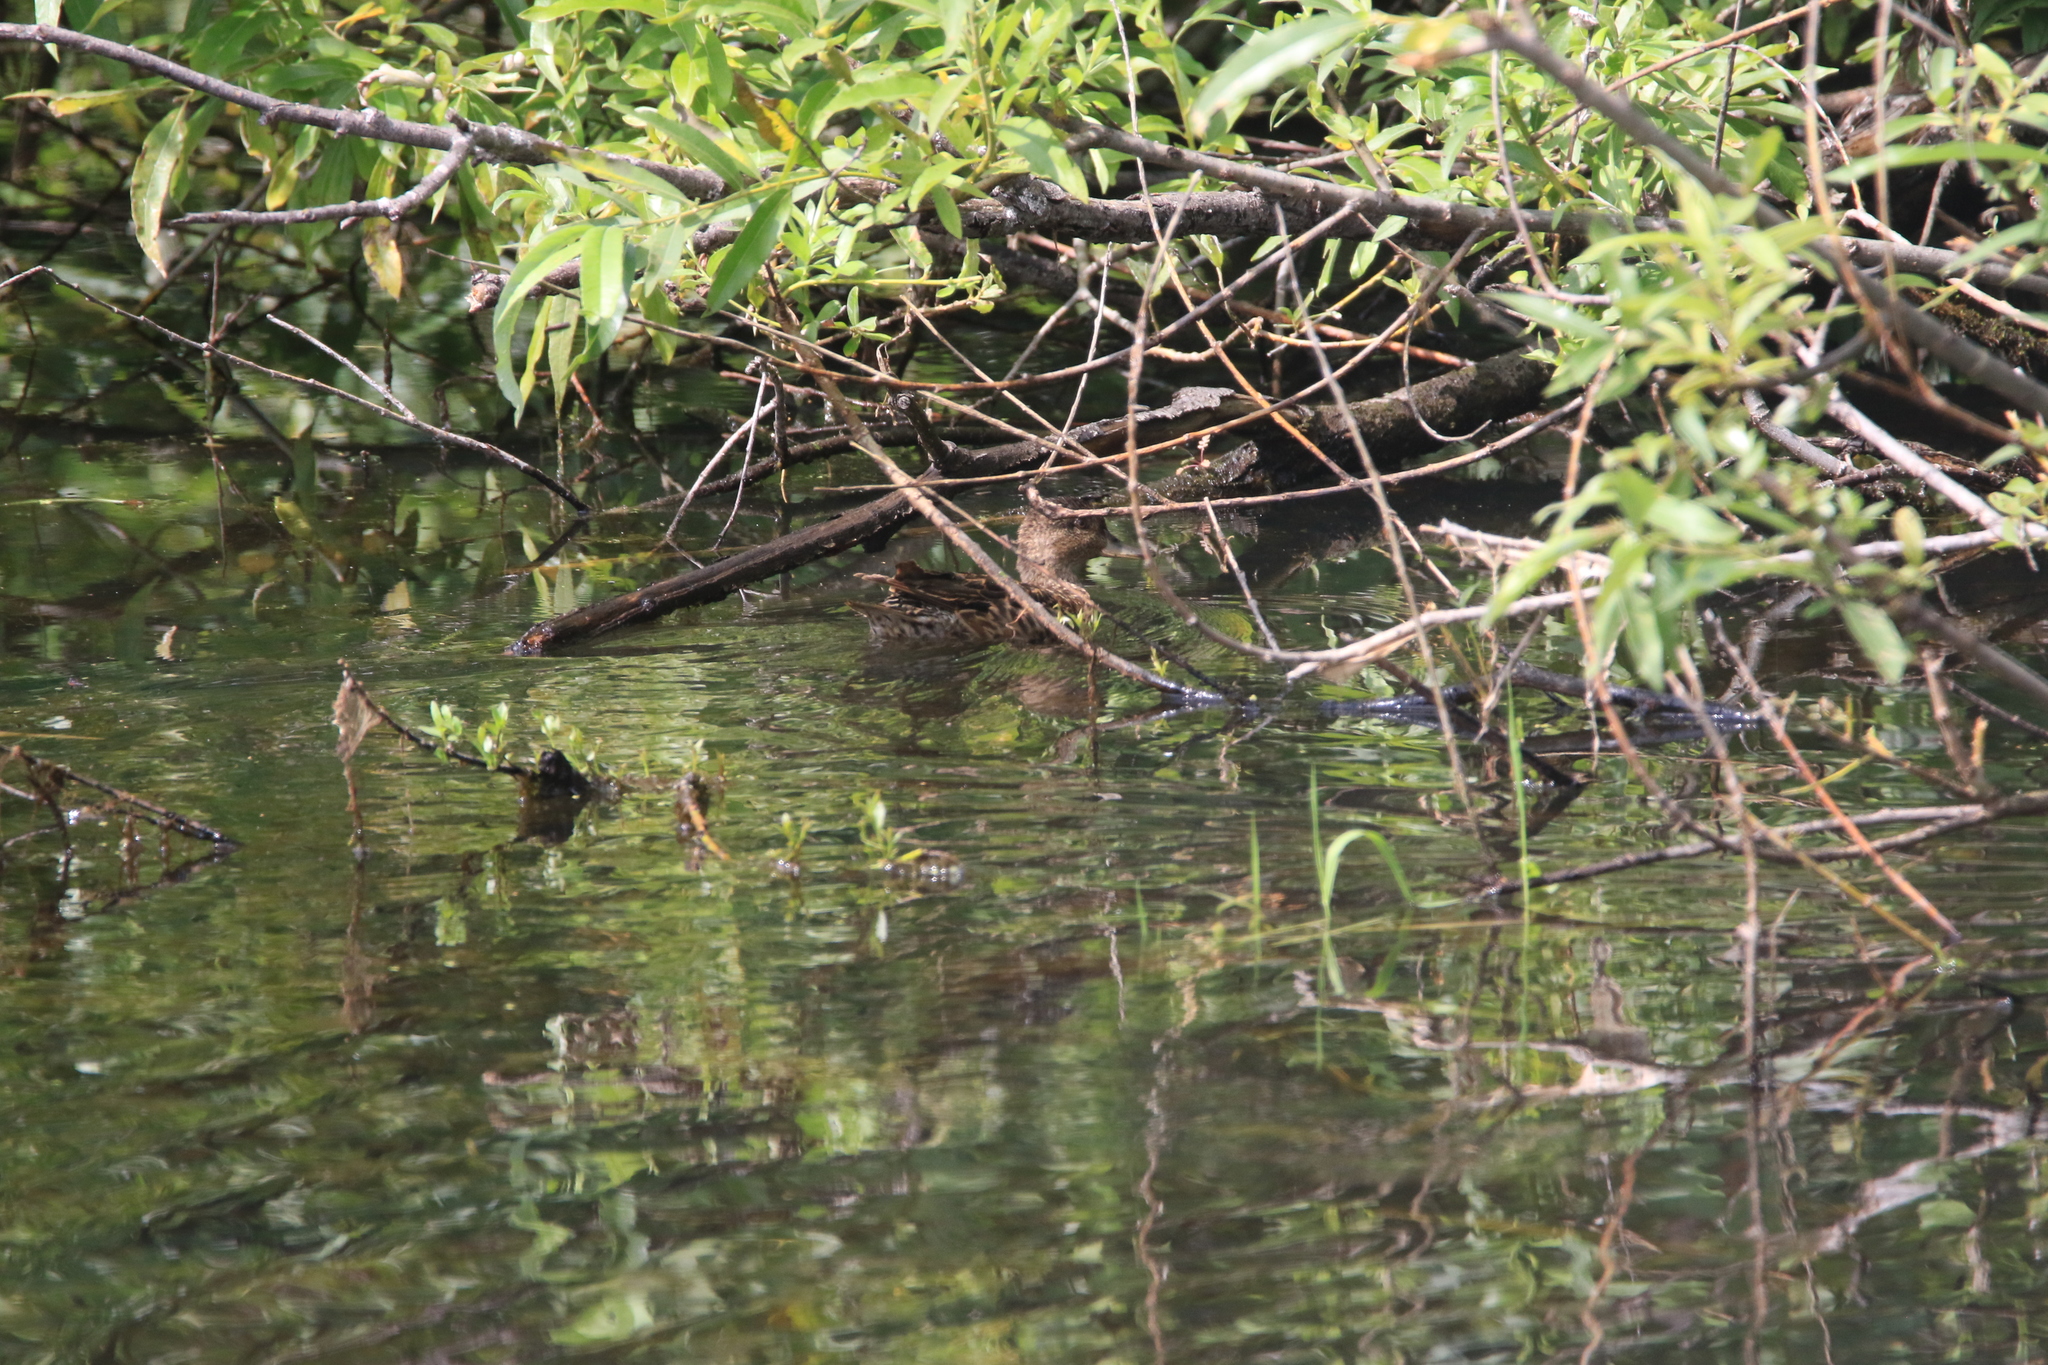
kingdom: Animalia
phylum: Chordata
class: Aves
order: Anseriformes
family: Anatidae
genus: Anas
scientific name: Anas crecca
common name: Eurasian teal
